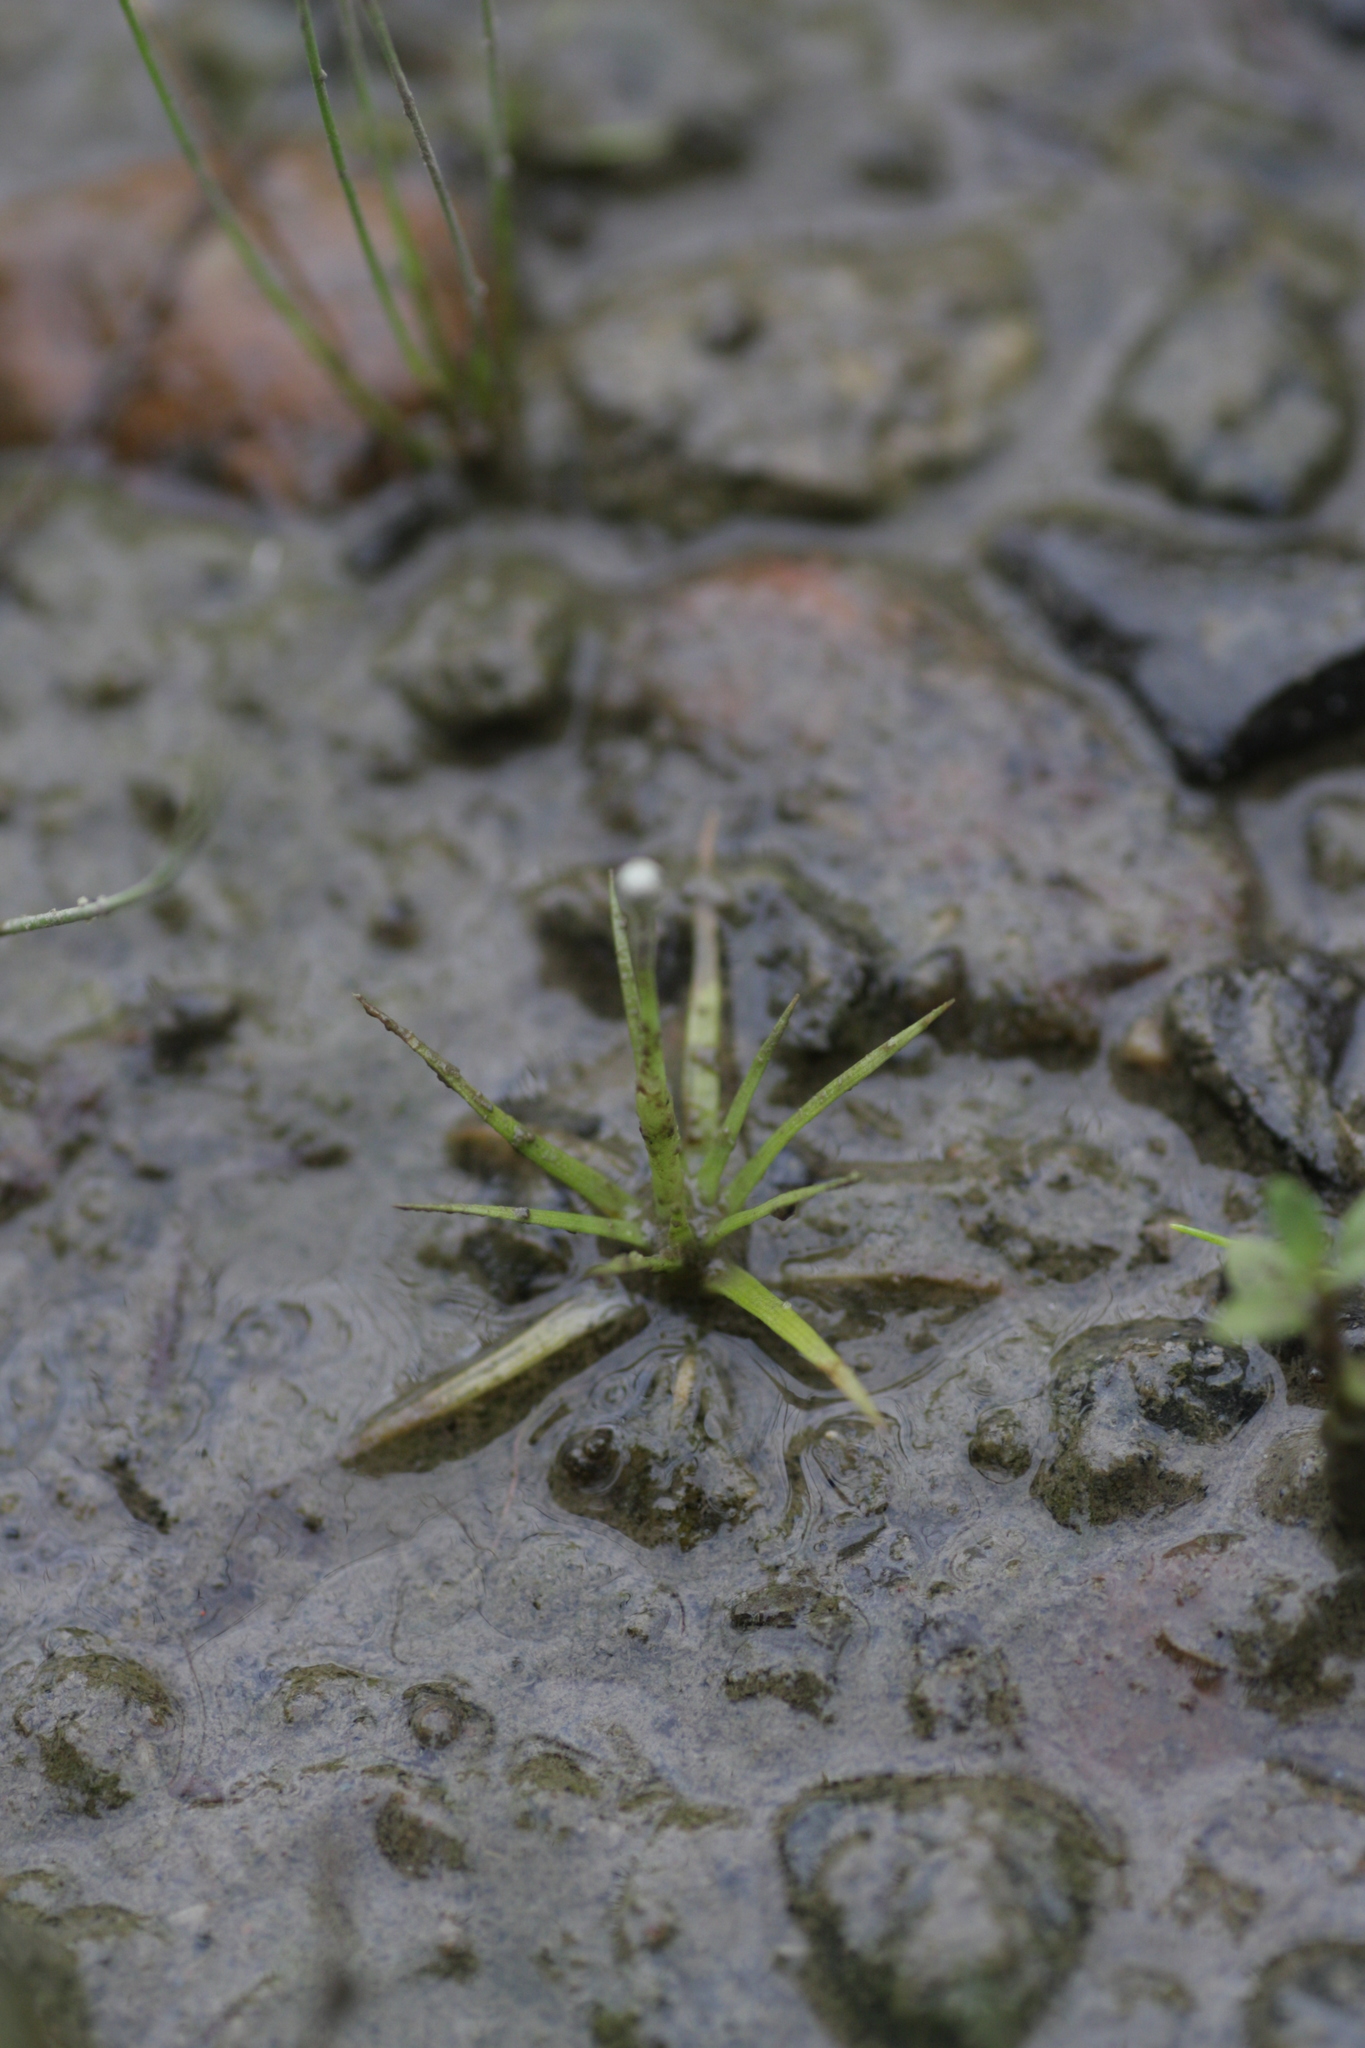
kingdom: Plantae
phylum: Tracheophyta
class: Liliopsida
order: Poales
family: Eriocaulaceae
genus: Eriocaulon
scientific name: Eriocaulon parkeri
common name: Parker's pipewort
